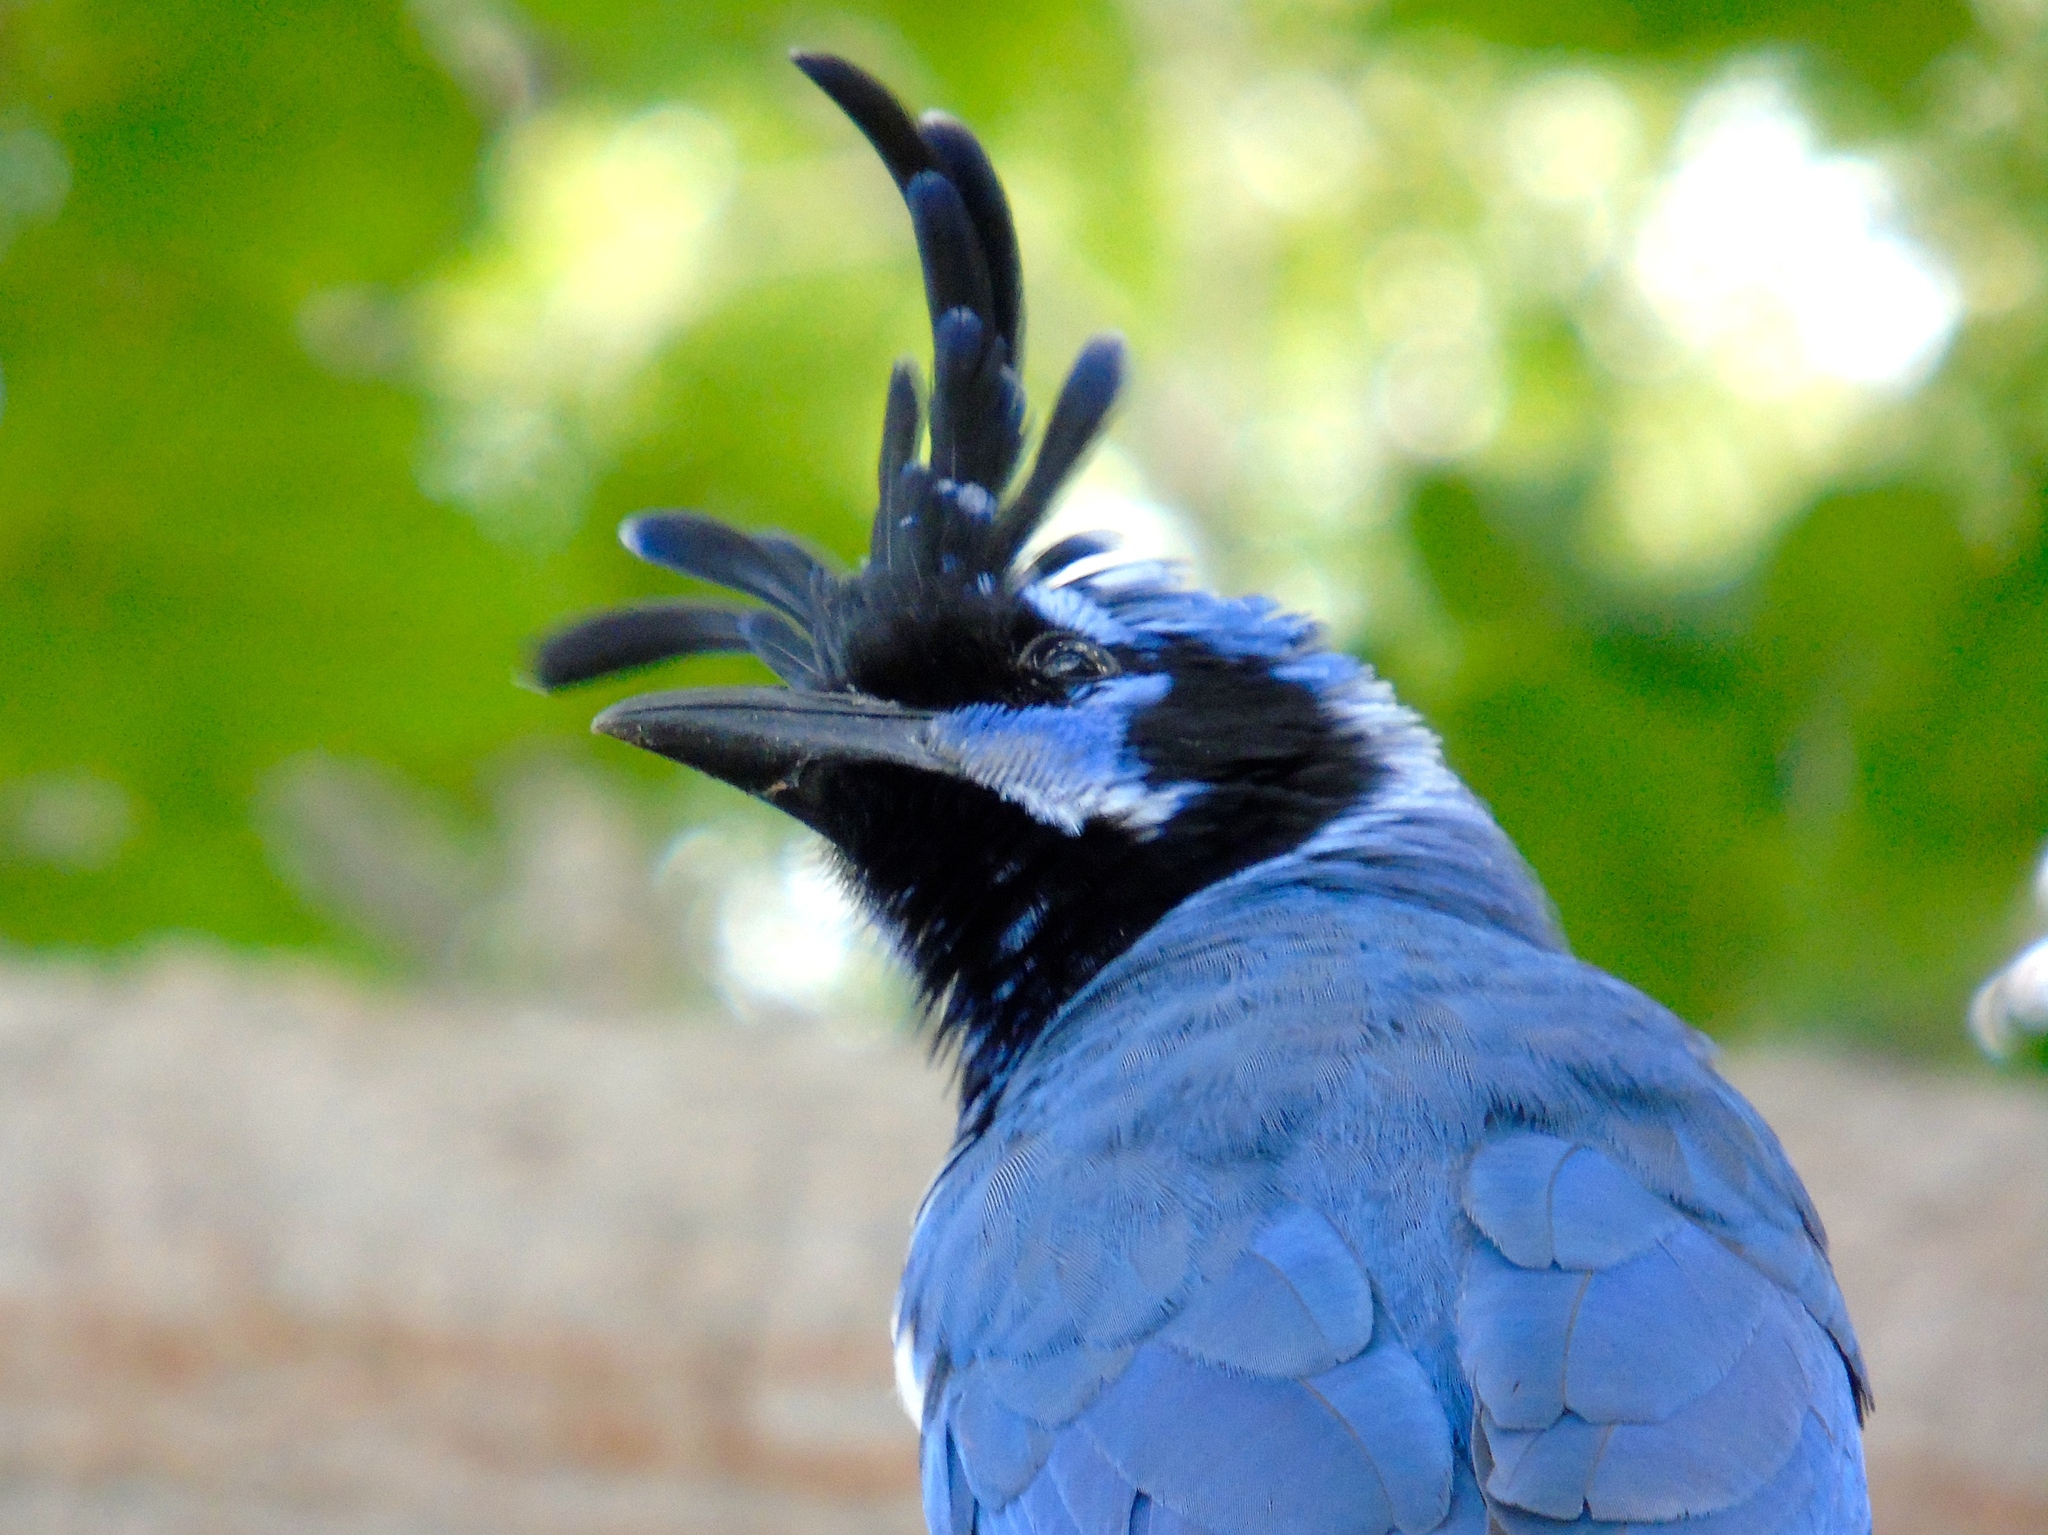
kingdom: Animalia
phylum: Chordata
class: Aves
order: Passeriformes
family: Corvidae
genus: Calocitta
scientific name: Calocitta colliei
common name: Black-throated magpie-jay
